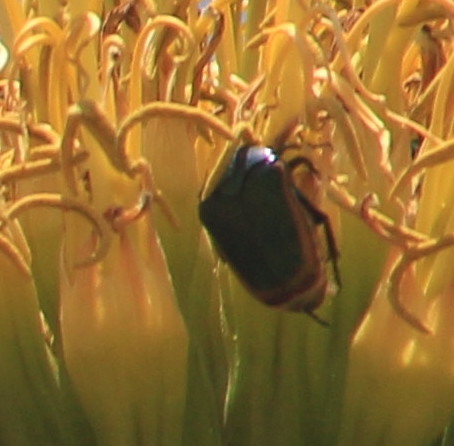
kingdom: Animalia
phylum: Arthropoda
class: Insecta
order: Coleoptera
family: Scarabaeidae
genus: Cotinis
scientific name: Cotinis mutabilis
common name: Figeater beetle
